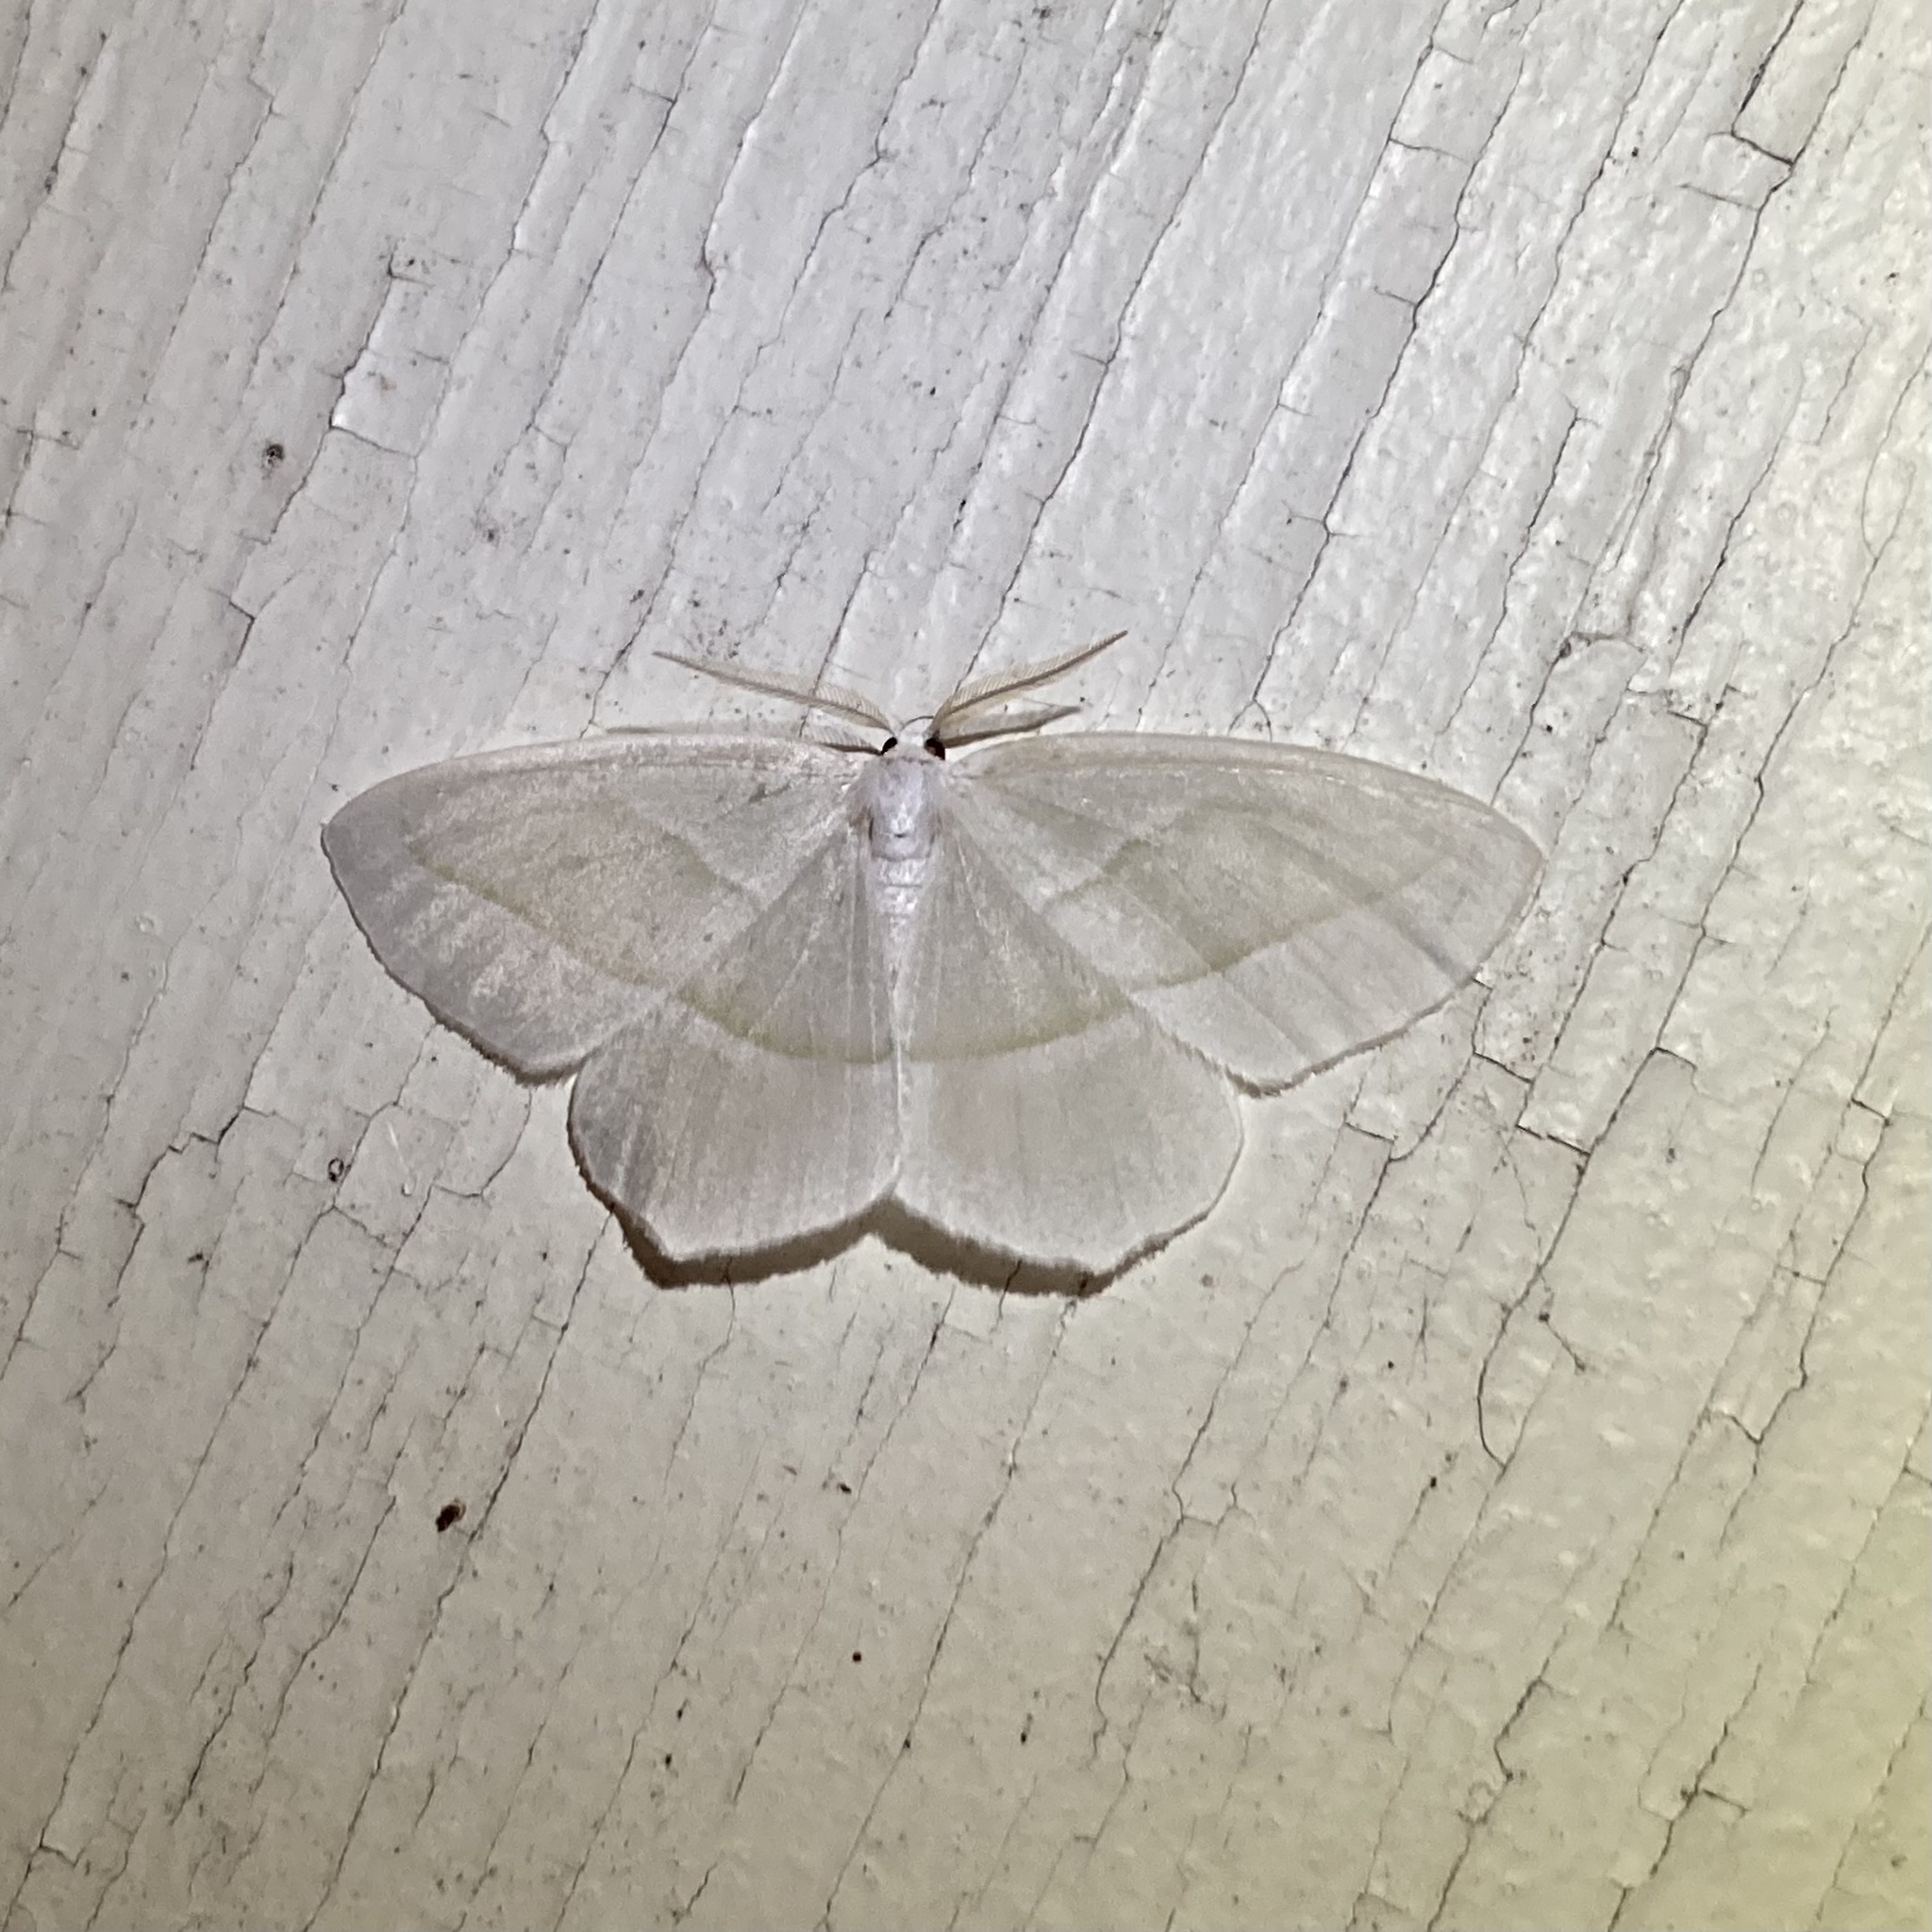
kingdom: Animalia
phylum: Arthropoda
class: Insecta
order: Lepidoptera
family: Geometridae
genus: Campaea
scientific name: Campaea perlata
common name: Fringed looper
